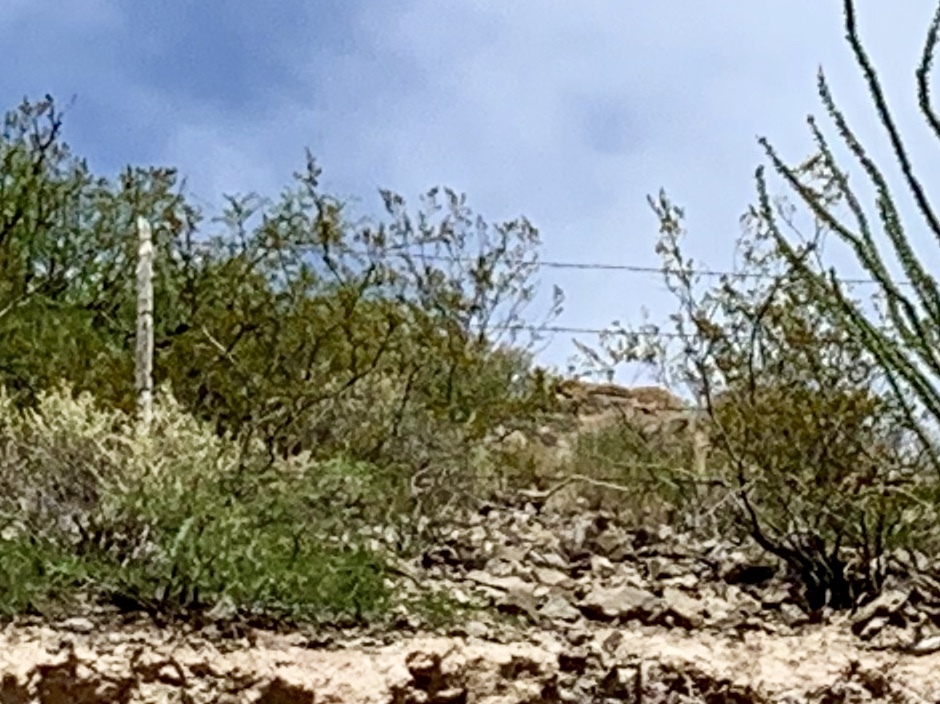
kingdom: Plantae
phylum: Tracheophyta
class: Magnoliopsida
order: Zygophyllales
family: Zygophyllaceae
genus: Larrea
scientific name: Larrea tridentata
